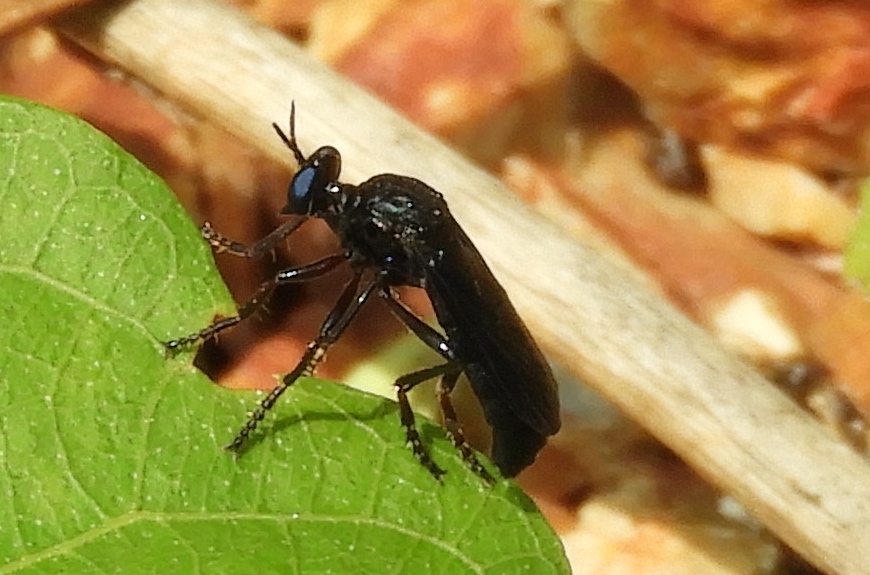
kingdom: Animalia
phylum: Arthropoda
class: Insecta
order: Diptera
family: Asilidae
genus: Saropogon
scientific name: Saropogon
